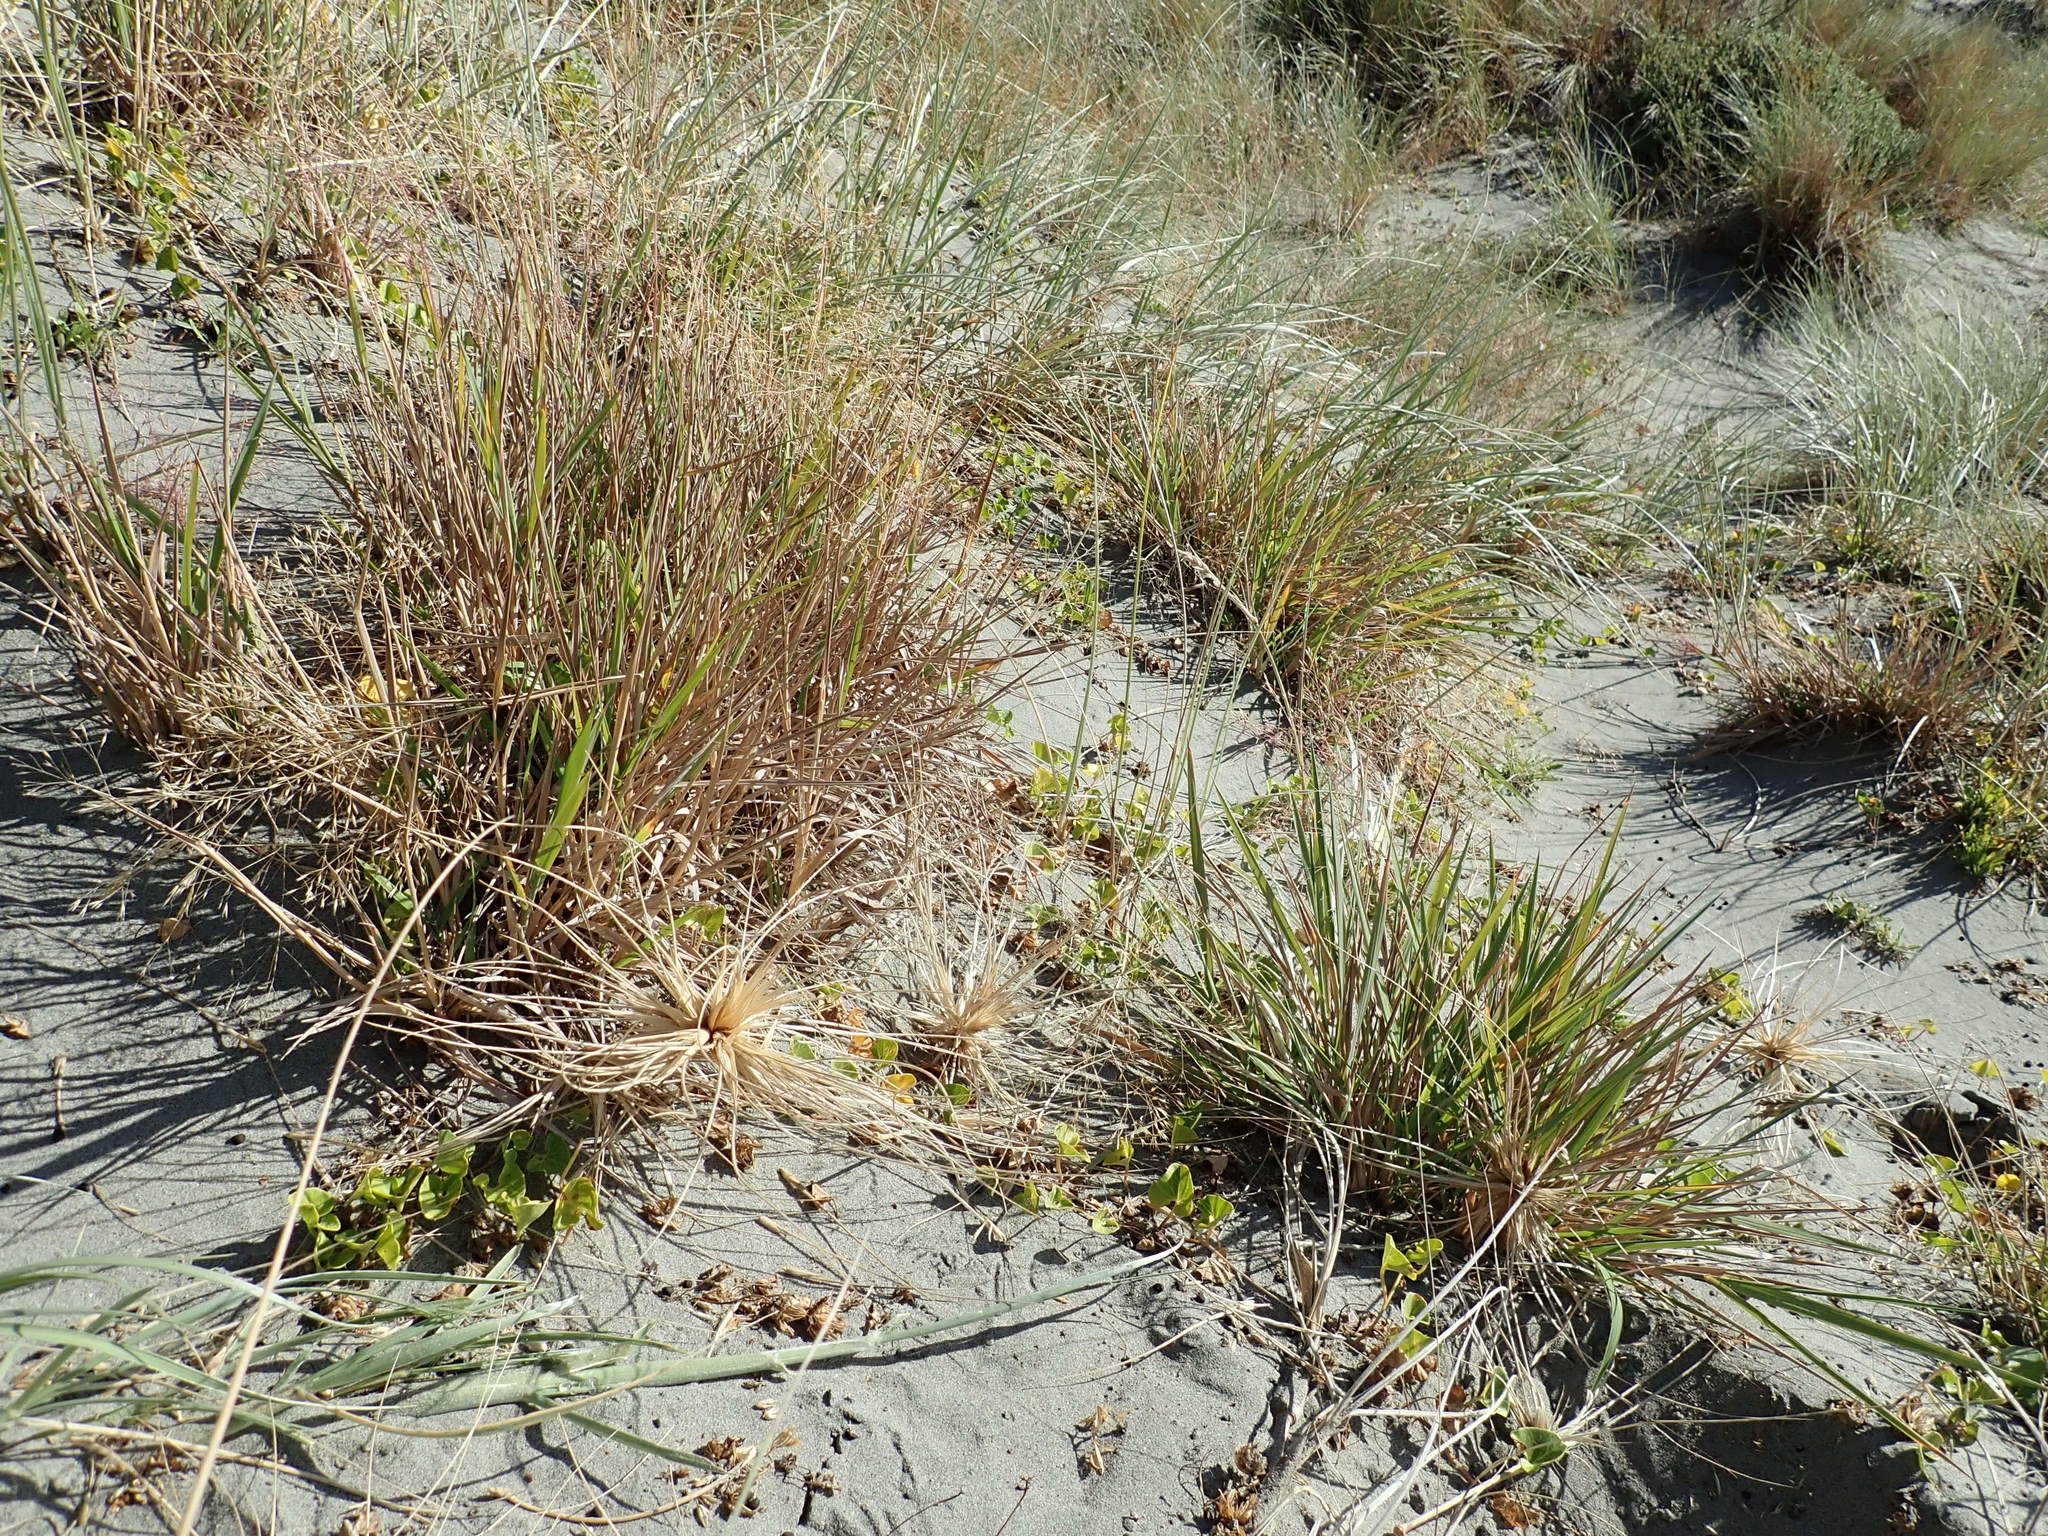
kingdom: Plantae
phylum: Tracheophyta
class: Liliopsida
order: Poales
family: Poaceae
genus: Lachnagrostis
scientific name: Lachnagrostis billardierei
